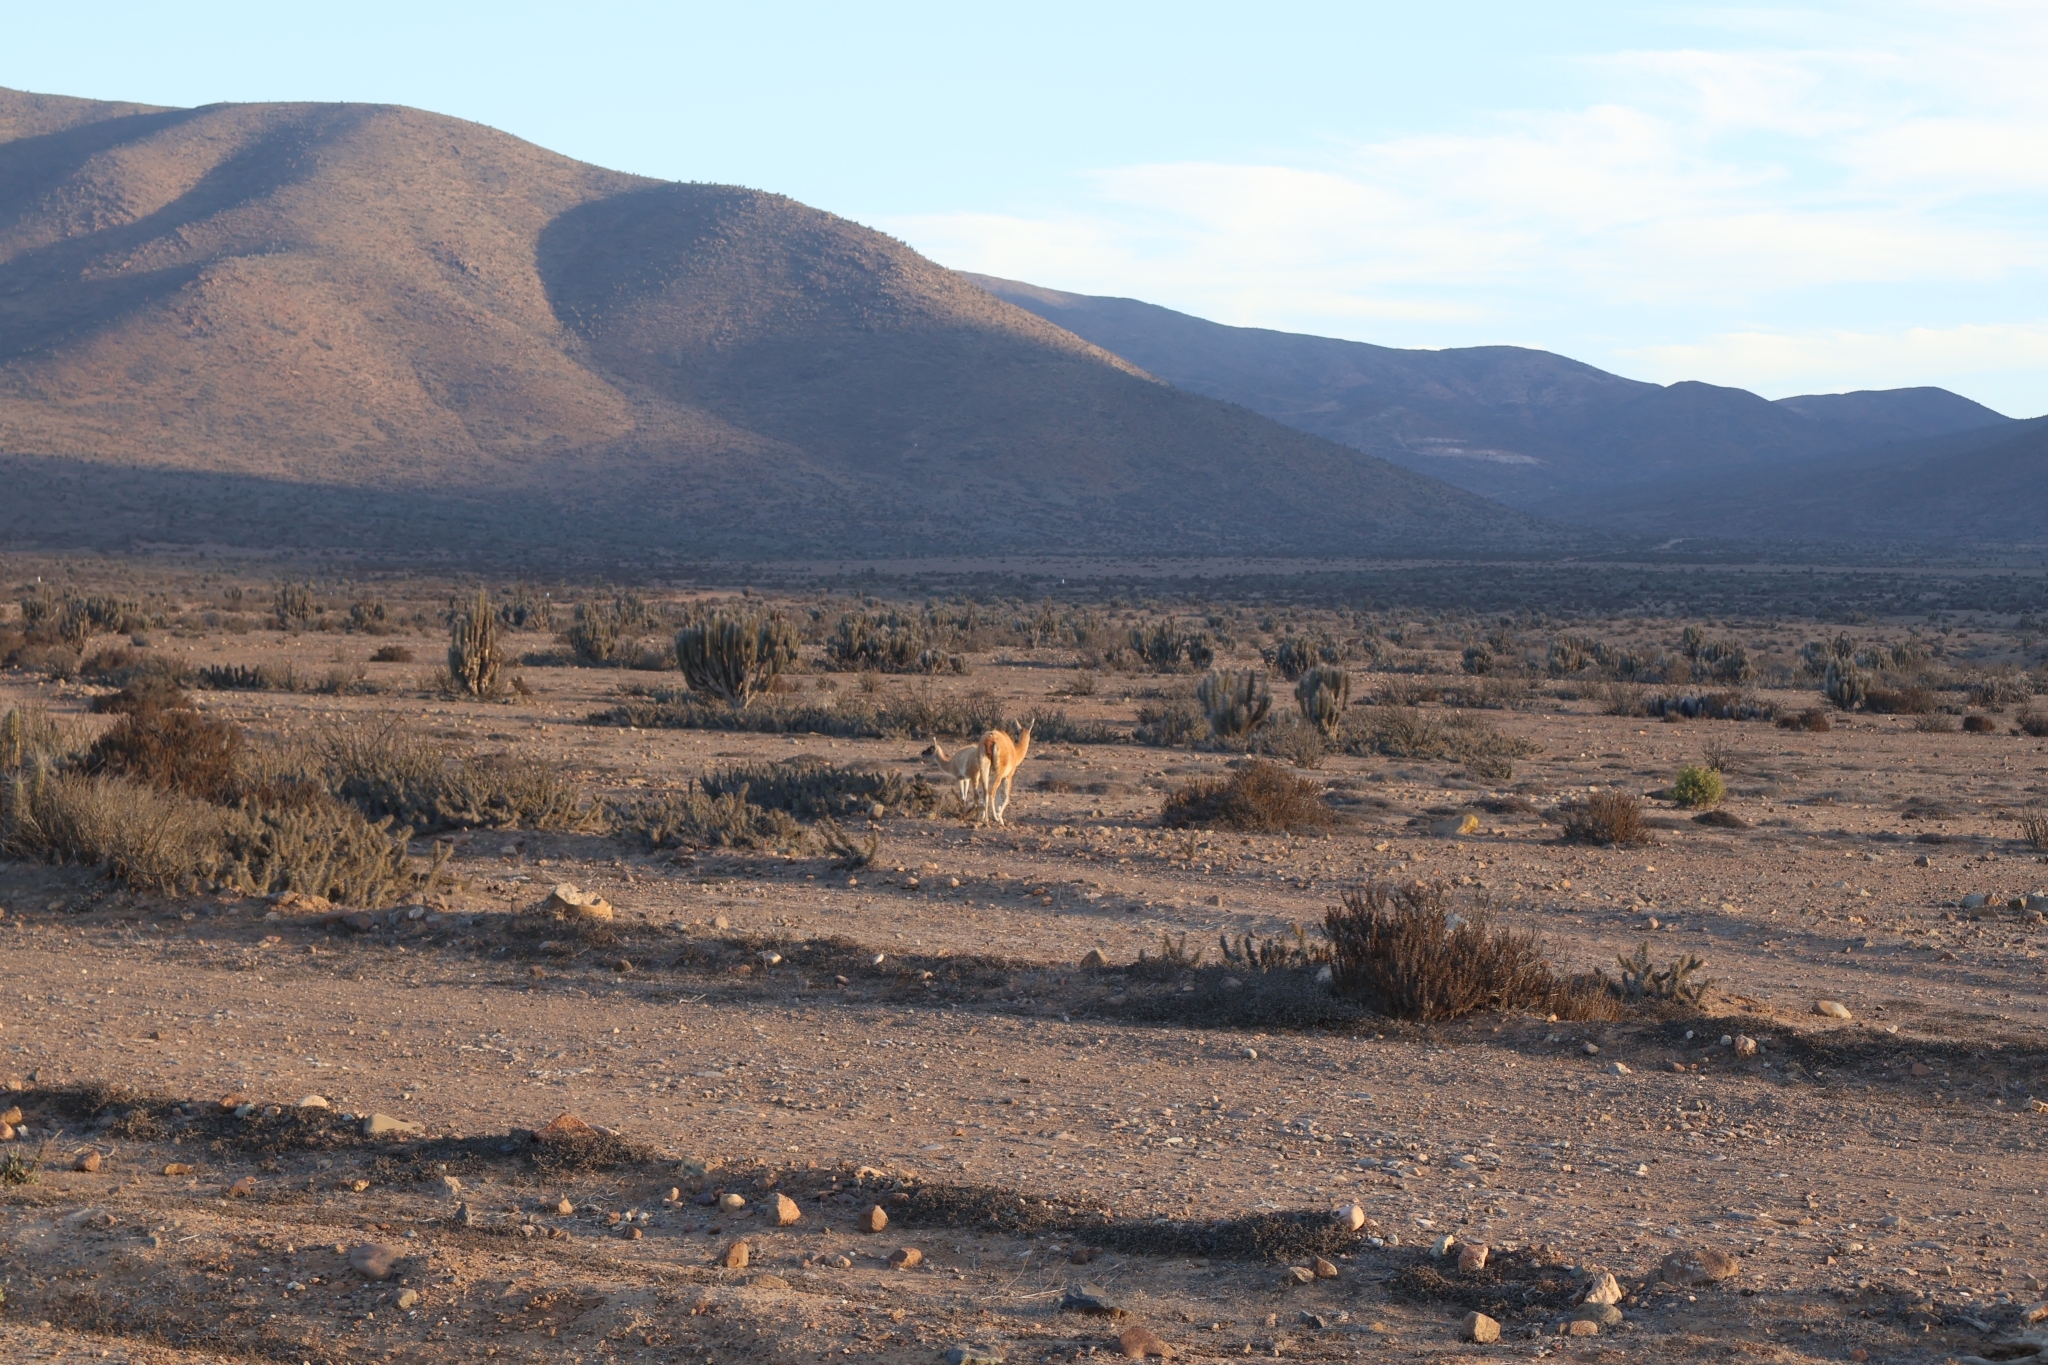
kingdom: Animalia
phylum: Chordata
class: Mammalia
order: Artiodactyla
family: Camelidae
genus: Lama
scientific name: Lama glama
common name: Llama
